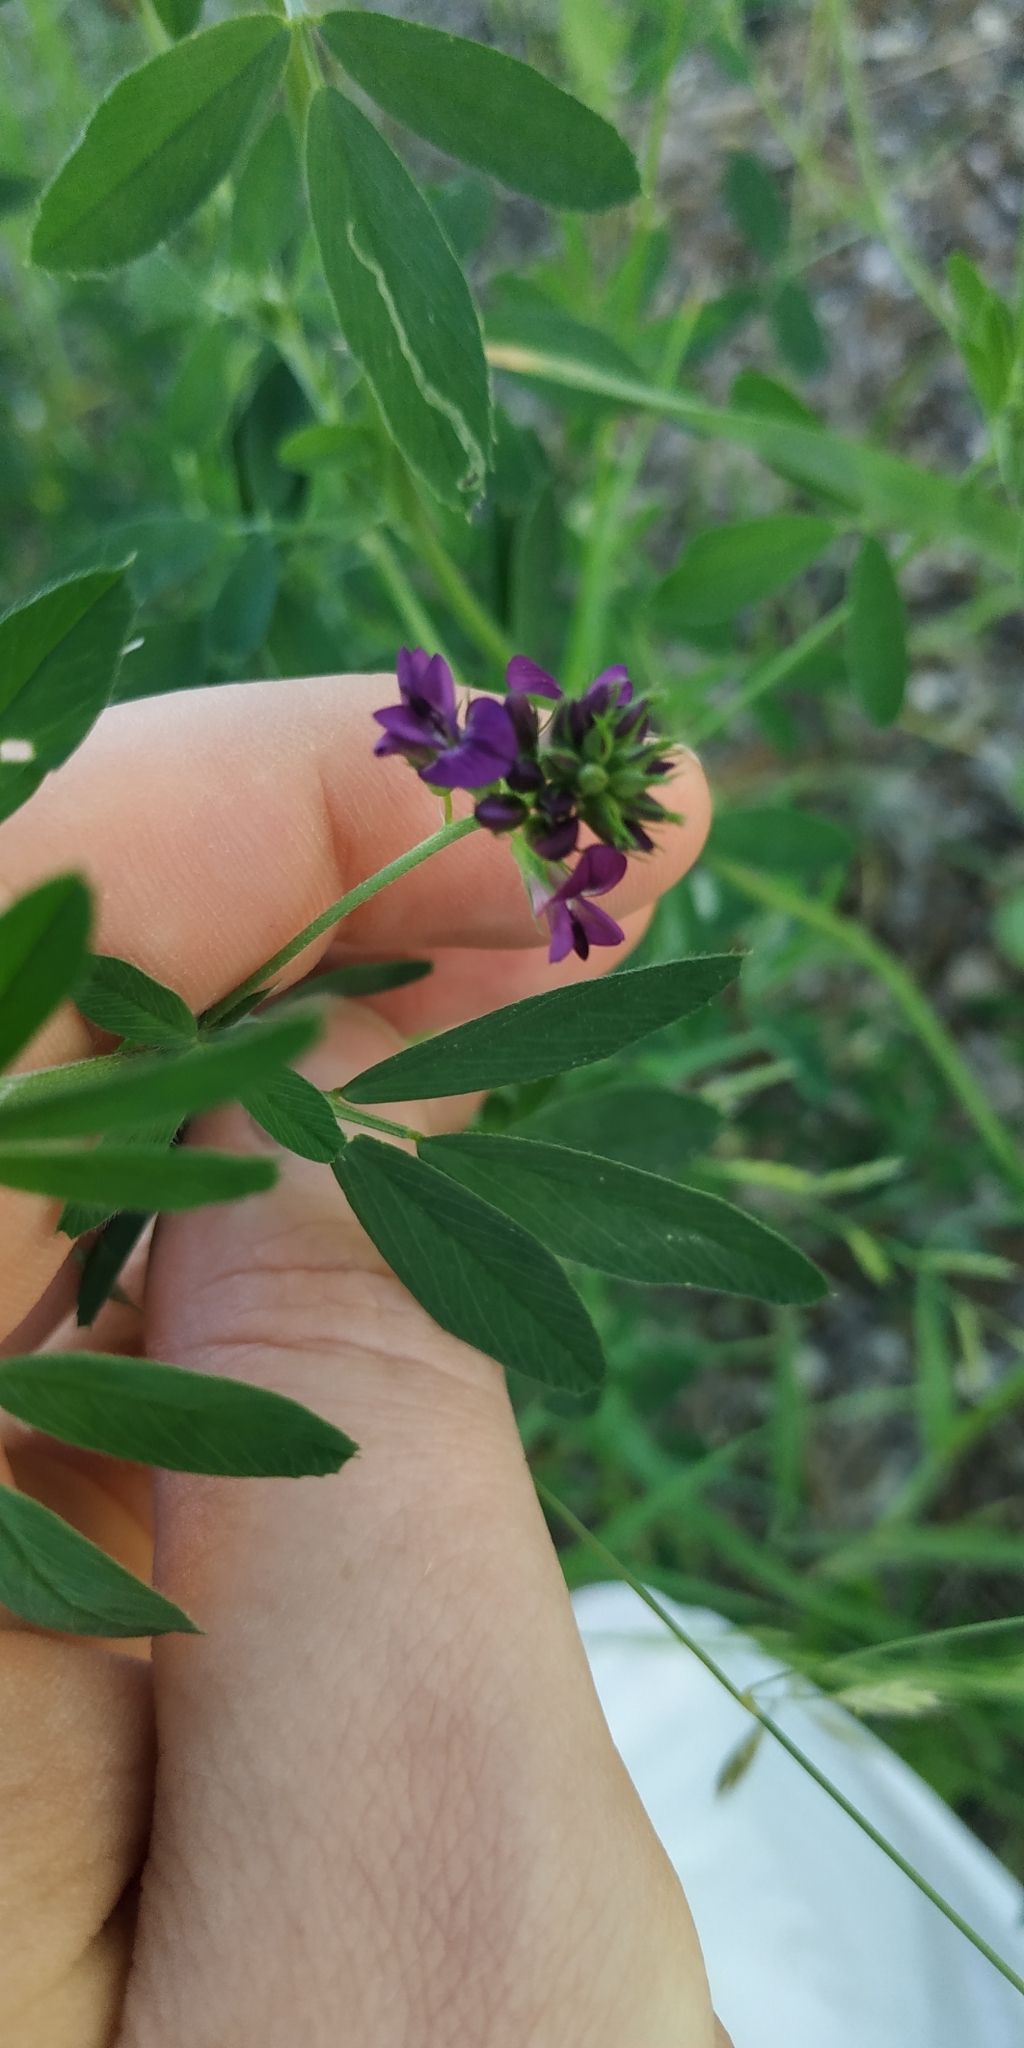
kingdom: Plantae
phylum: Tracheophyta
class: Magnoliopsida
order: Fabales
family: Fabaceae
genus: Medicago
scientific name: Medicago sativa
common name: Alfalfa
